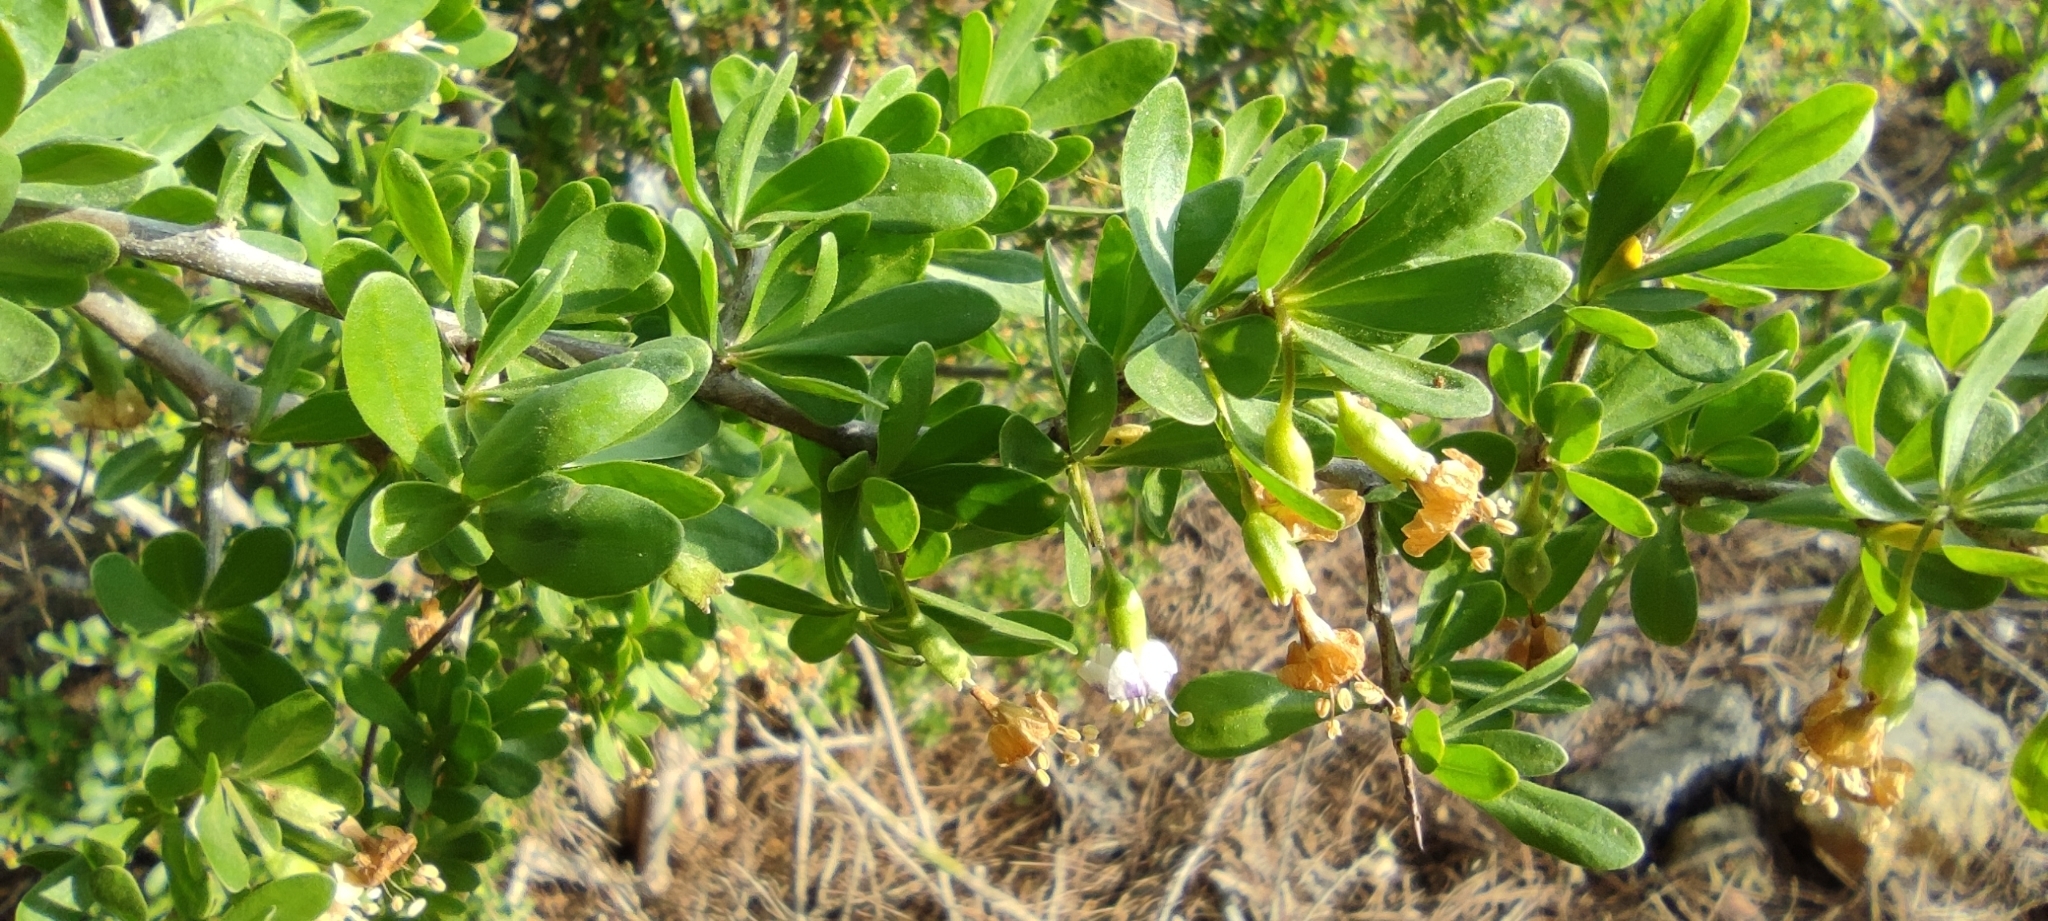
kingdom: Plantae
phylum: Tracheophyta
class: Magnoliopsida
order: Solanales
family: Solanaceae
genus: Lycium
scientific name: Lycium europaeum
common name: Boxthorn
